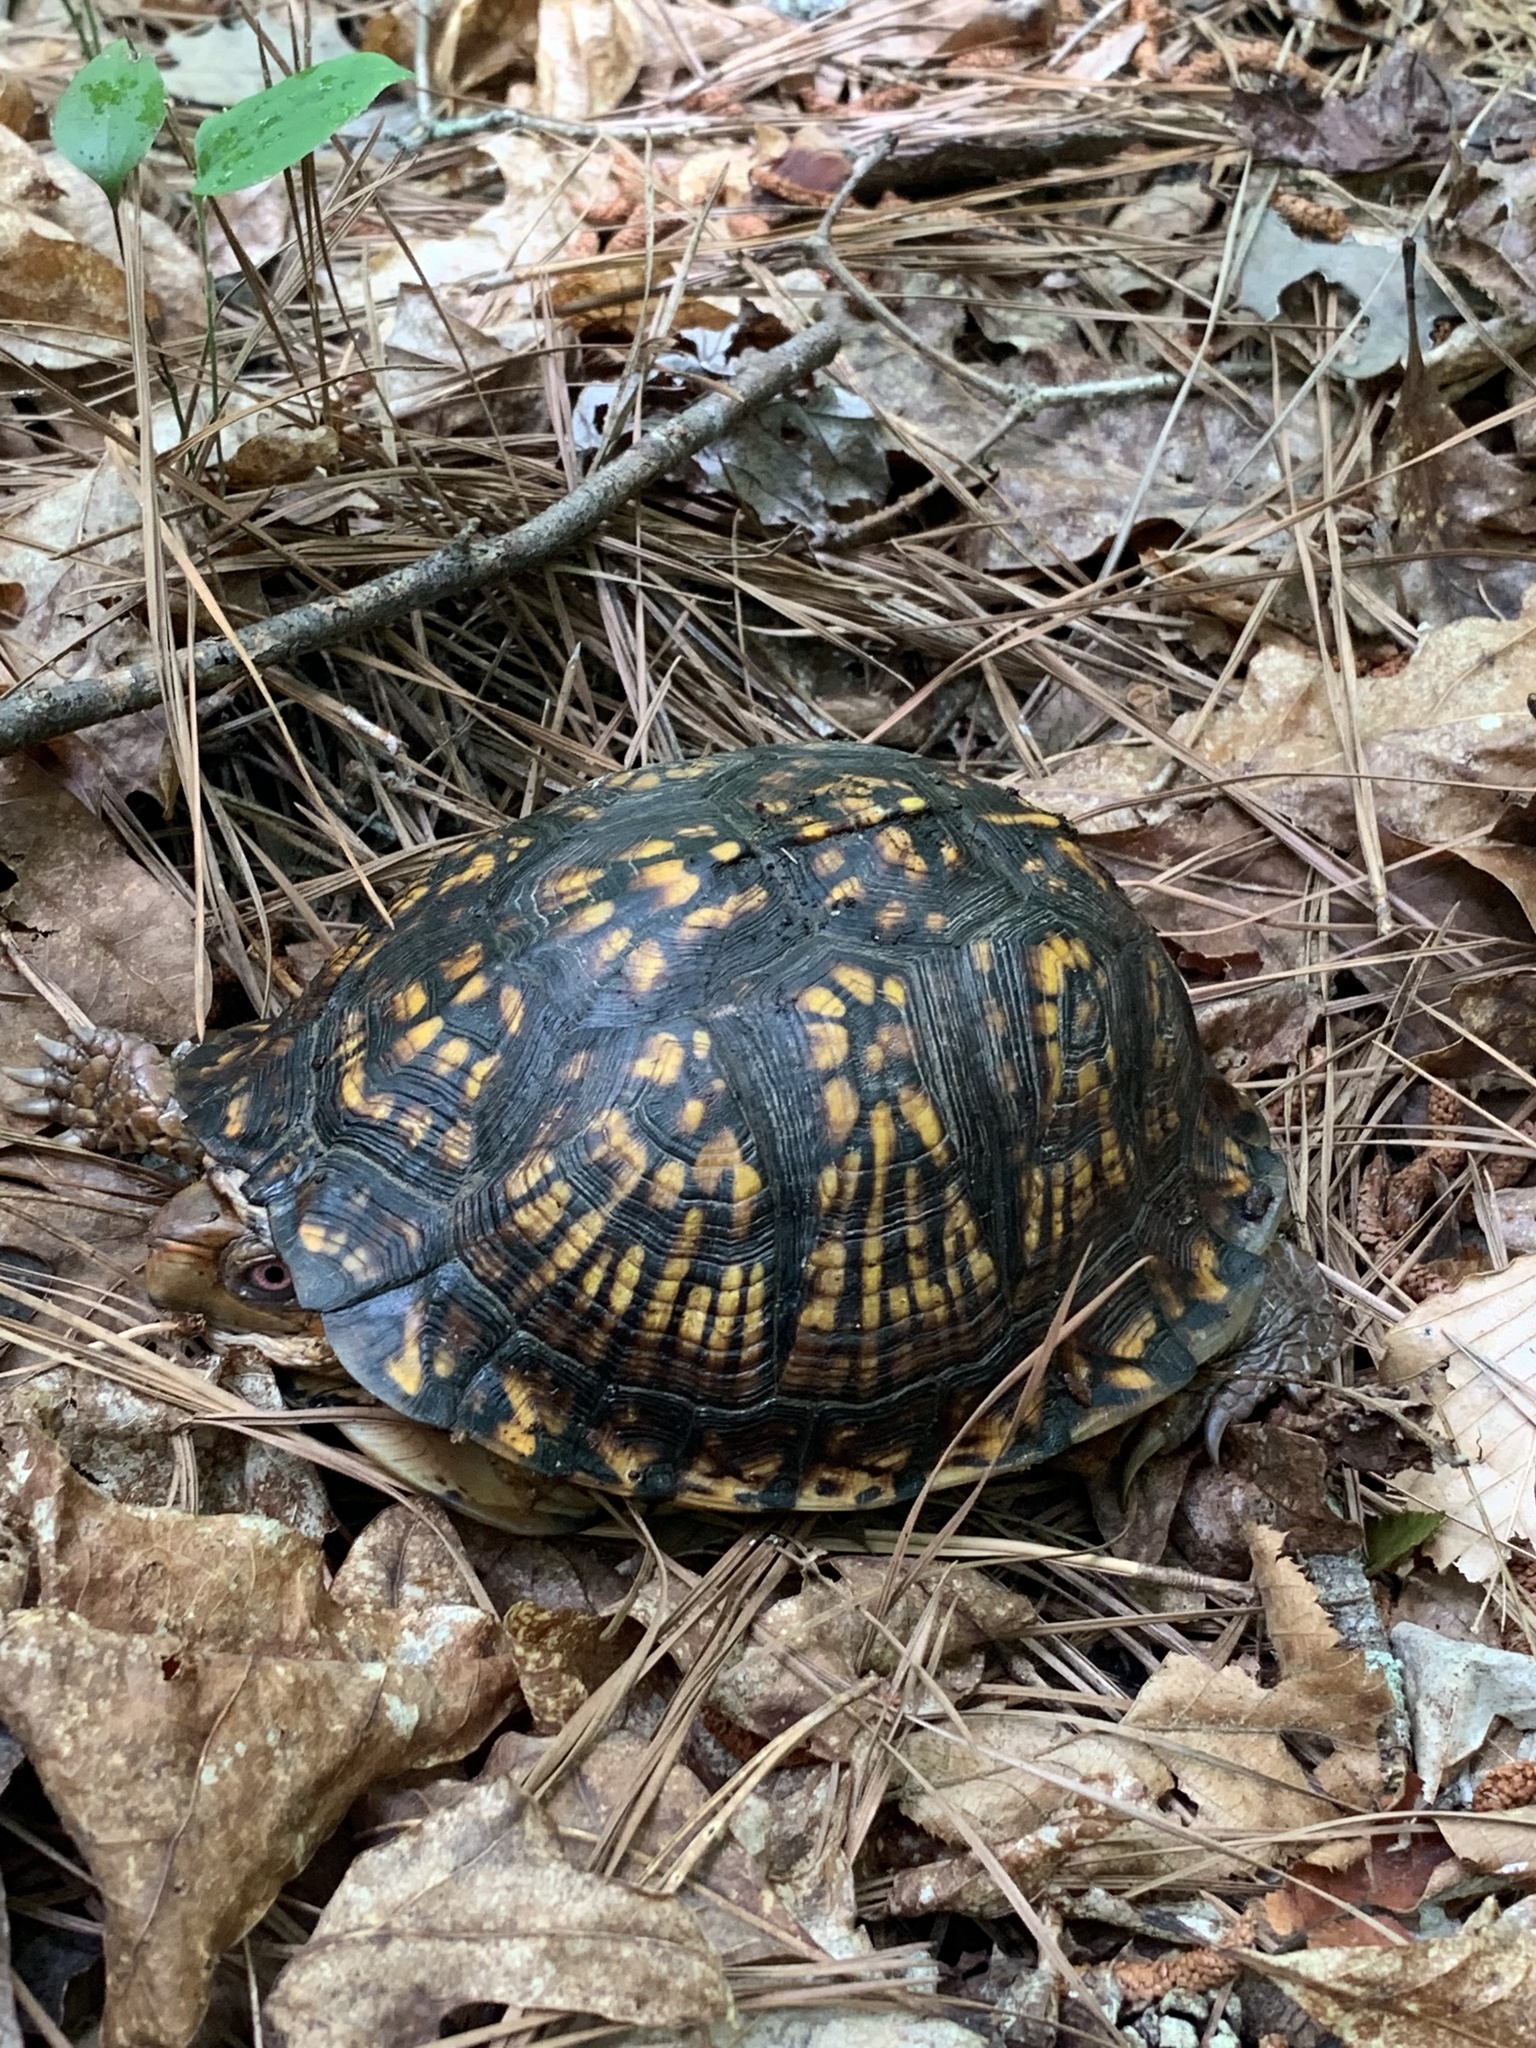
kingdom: Animalia
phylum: Chordata
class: Testudines
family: Emydidae
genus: Terrapene
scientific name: Terrapene carolina
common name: Common box turtle
